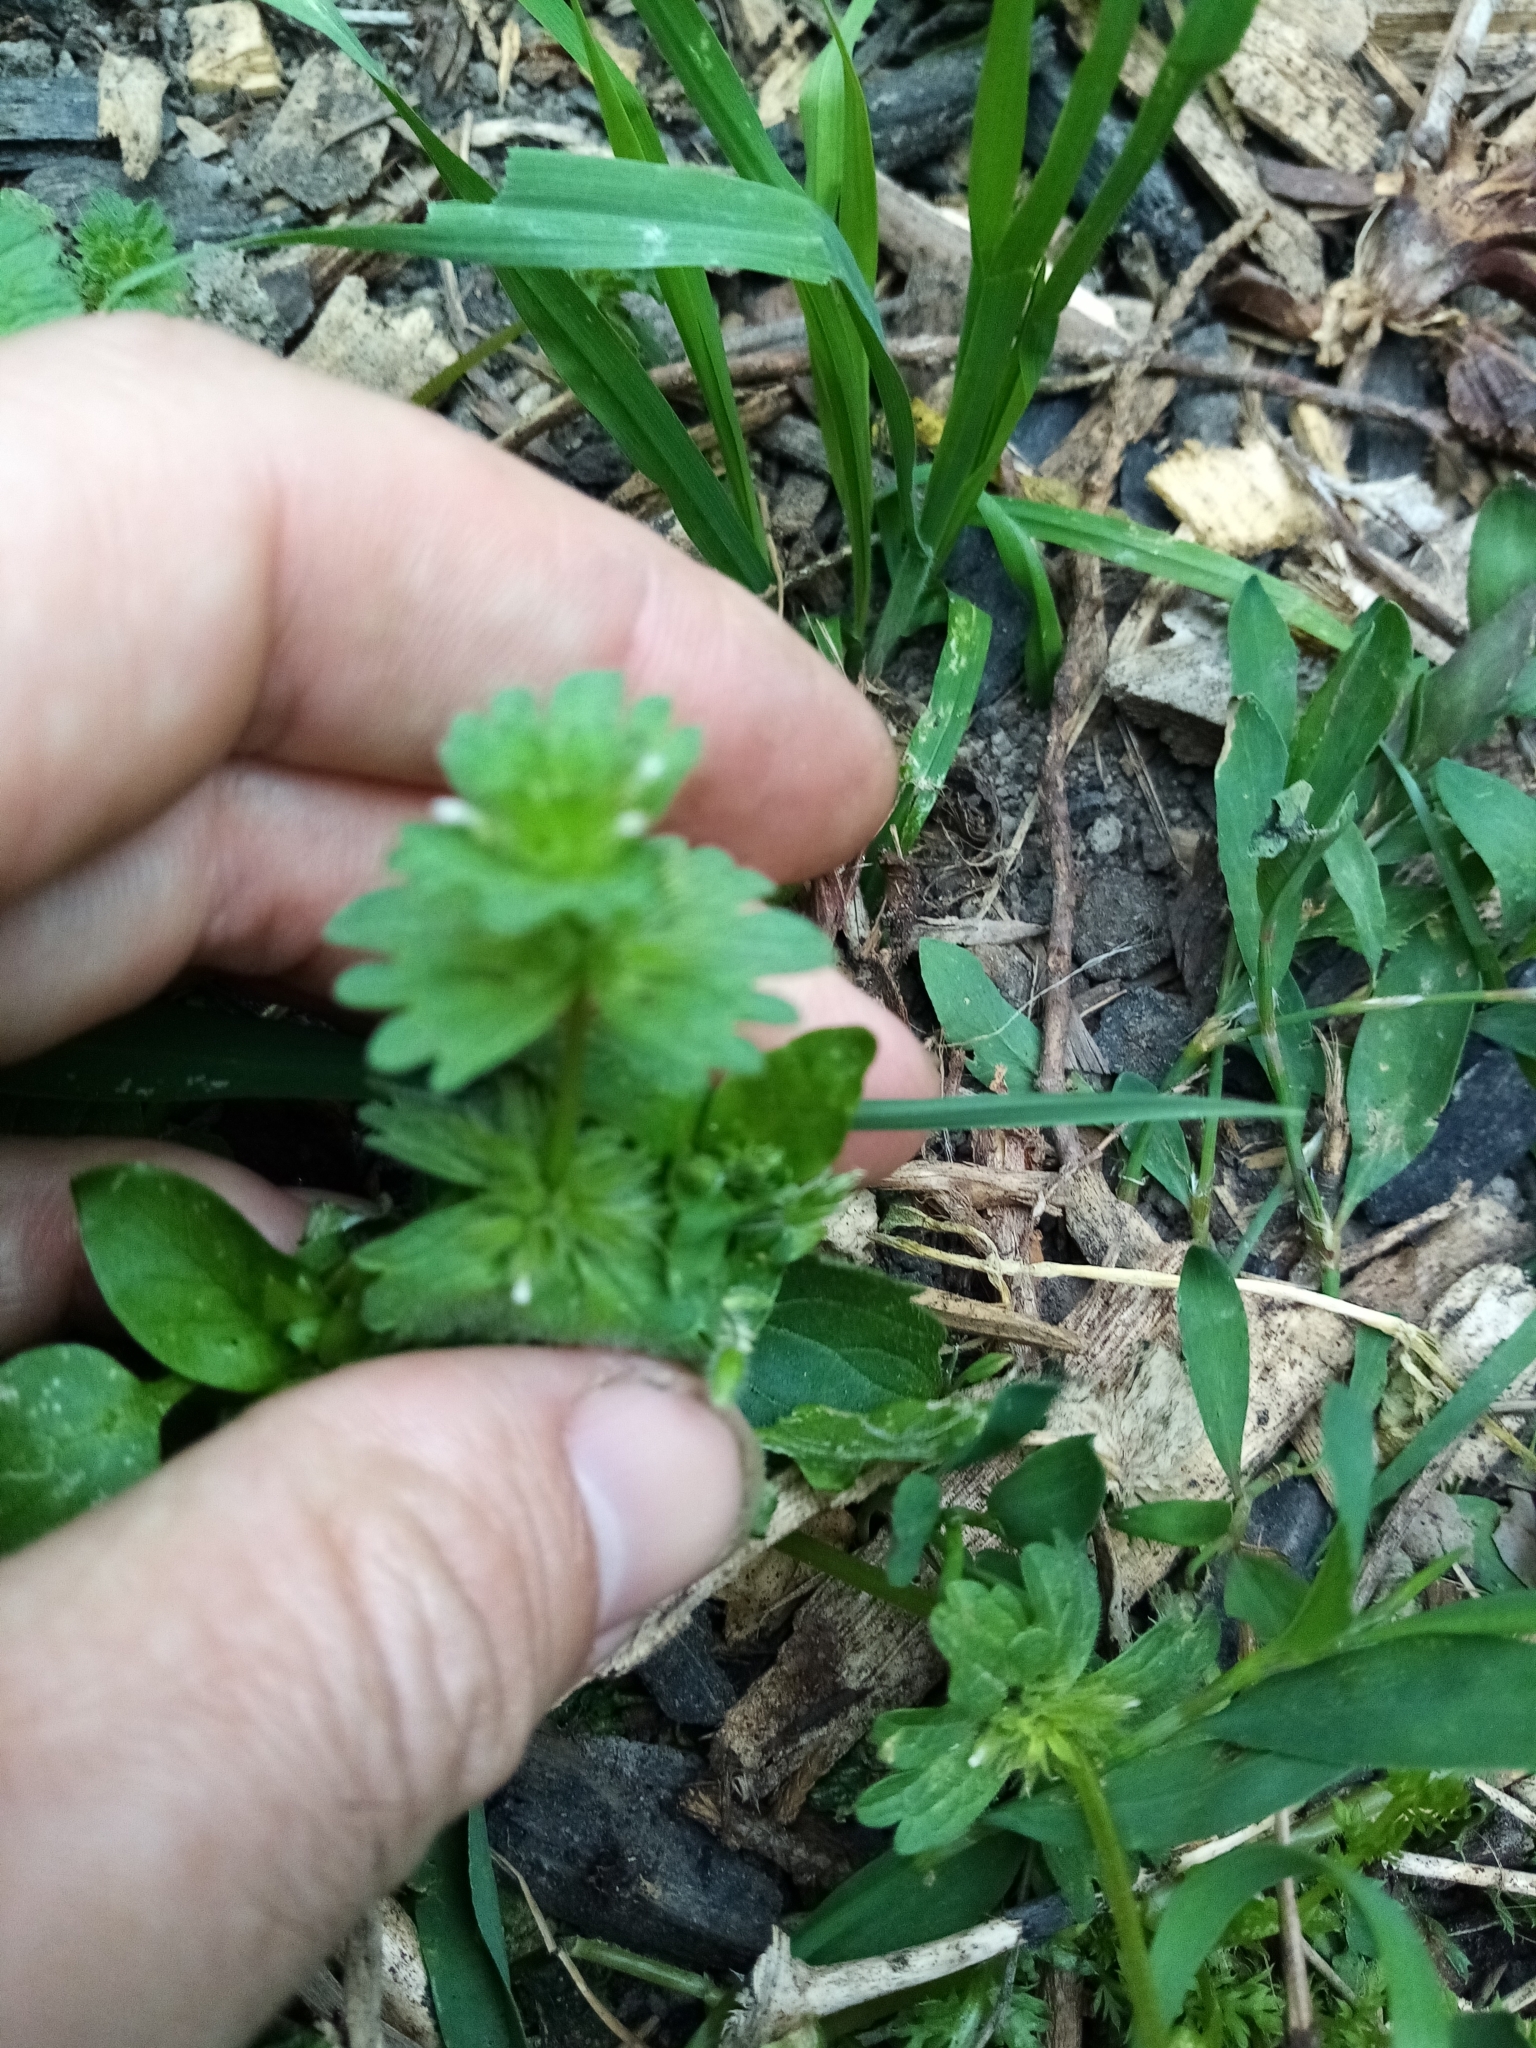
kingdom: Plantae
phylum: Tracheophyta
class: Magnoliopsida
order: Lamiales
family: Lamiaceae
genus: Lamium
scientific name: Lamium amplexicaule
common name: Henbit dead-nettle
